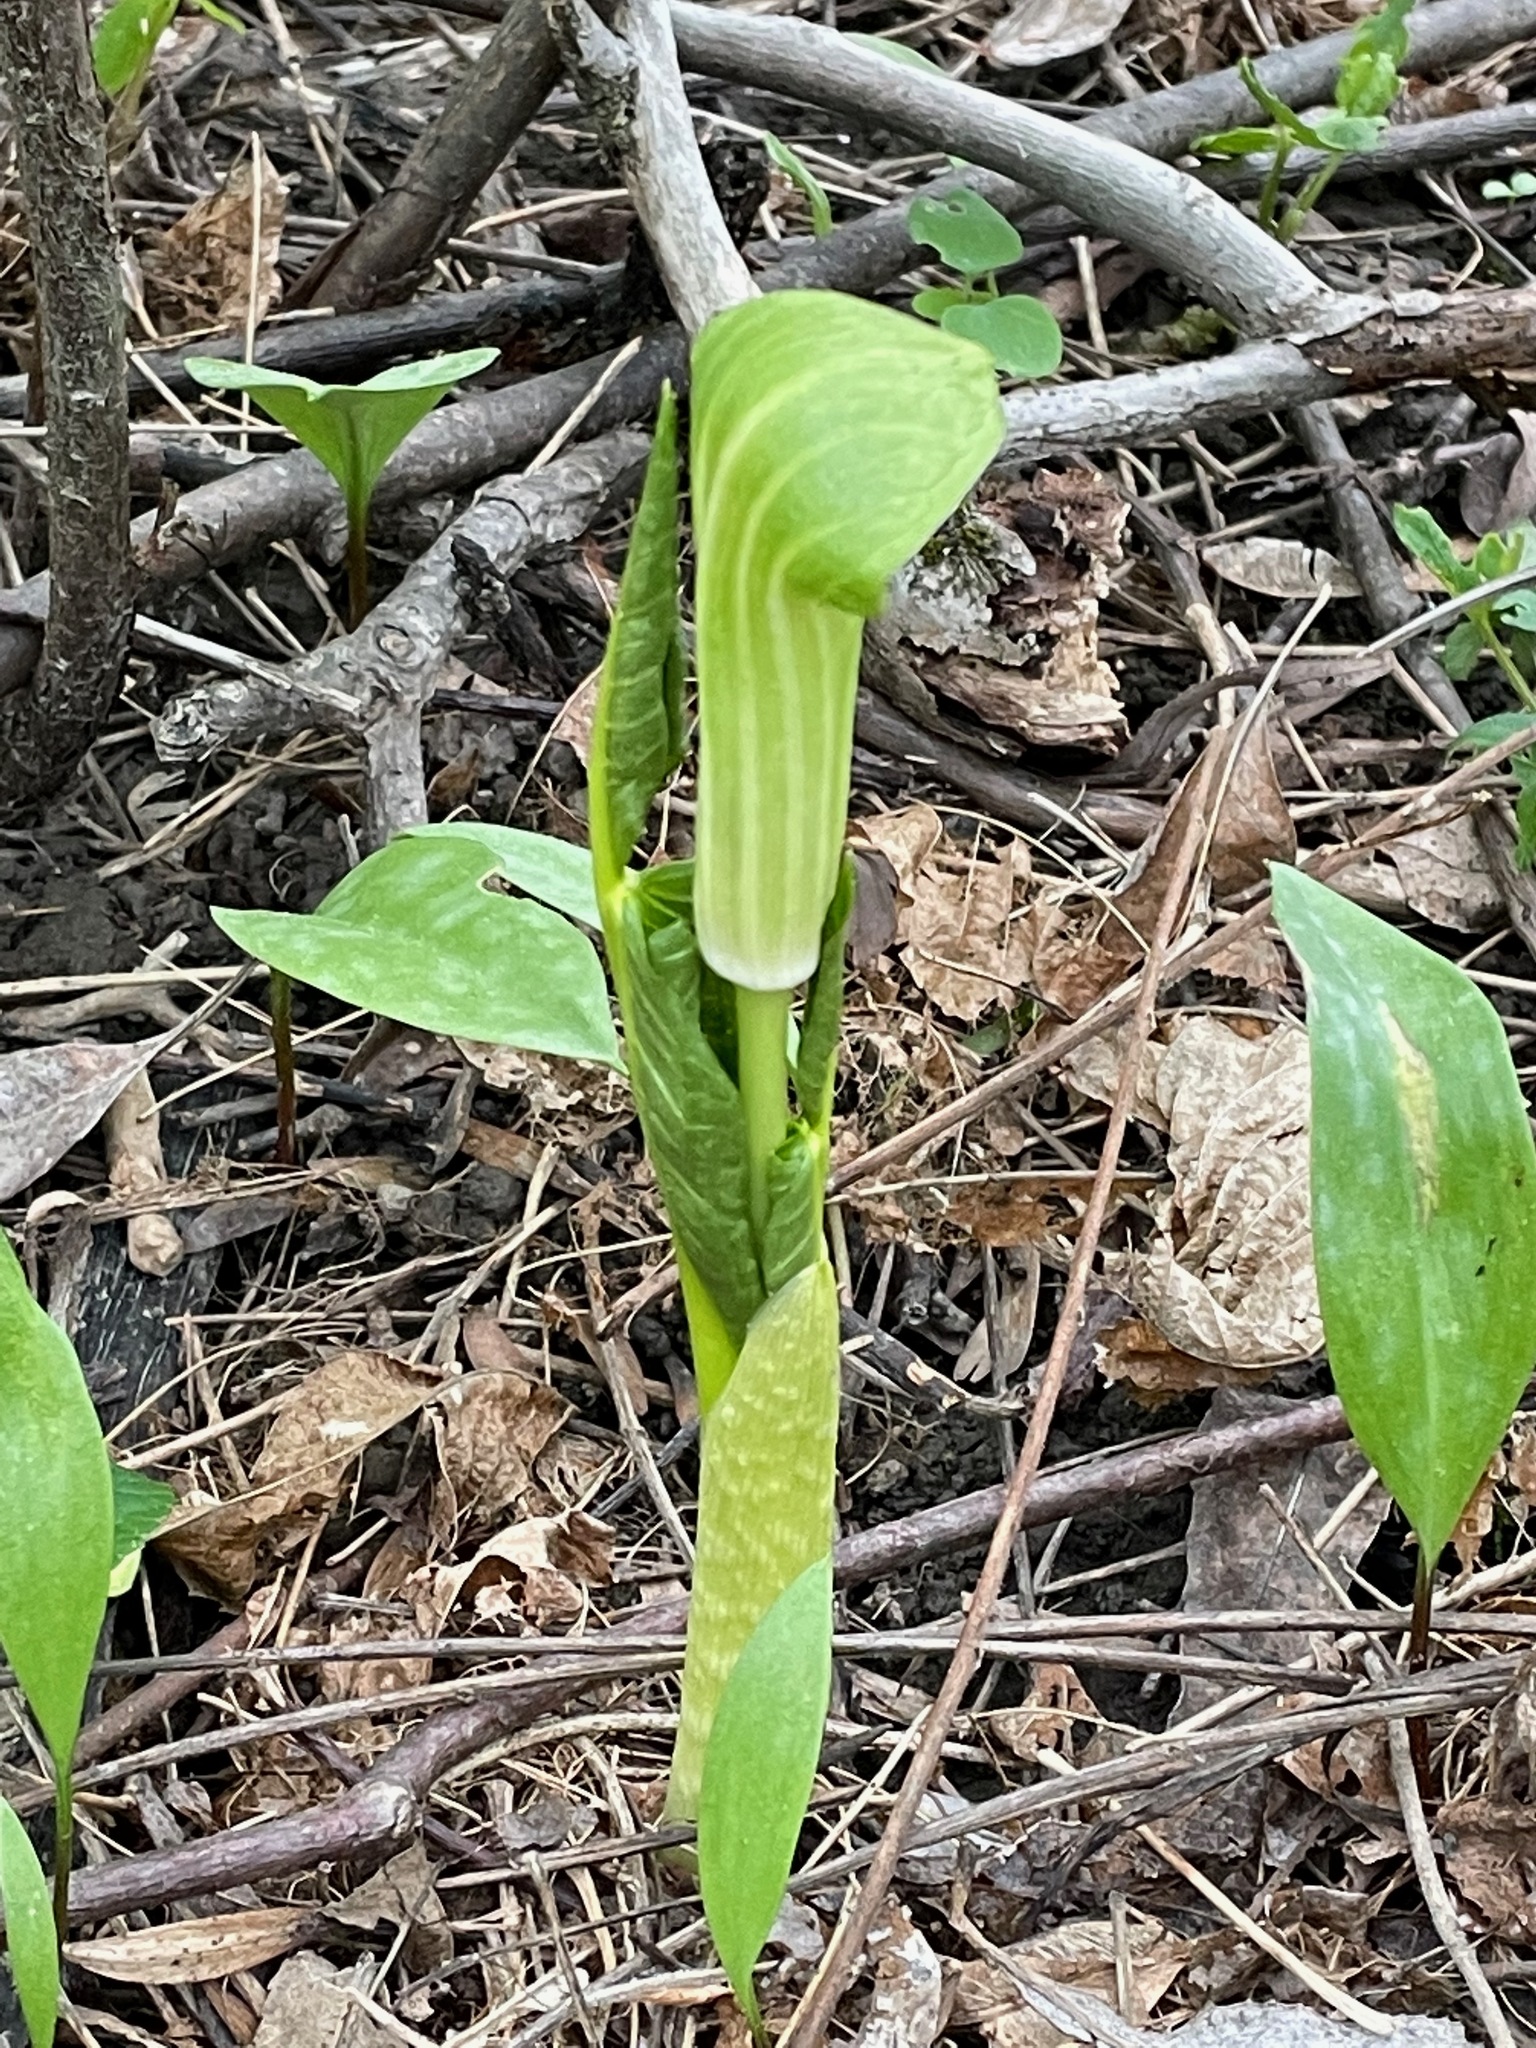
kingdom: Plantae
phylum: Tracheophyta
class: Liliopsida
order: Alismatales
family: Araceae
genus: Arisaema
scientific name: Arisaema triphyllum
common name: Jack-in-the-pulpit
